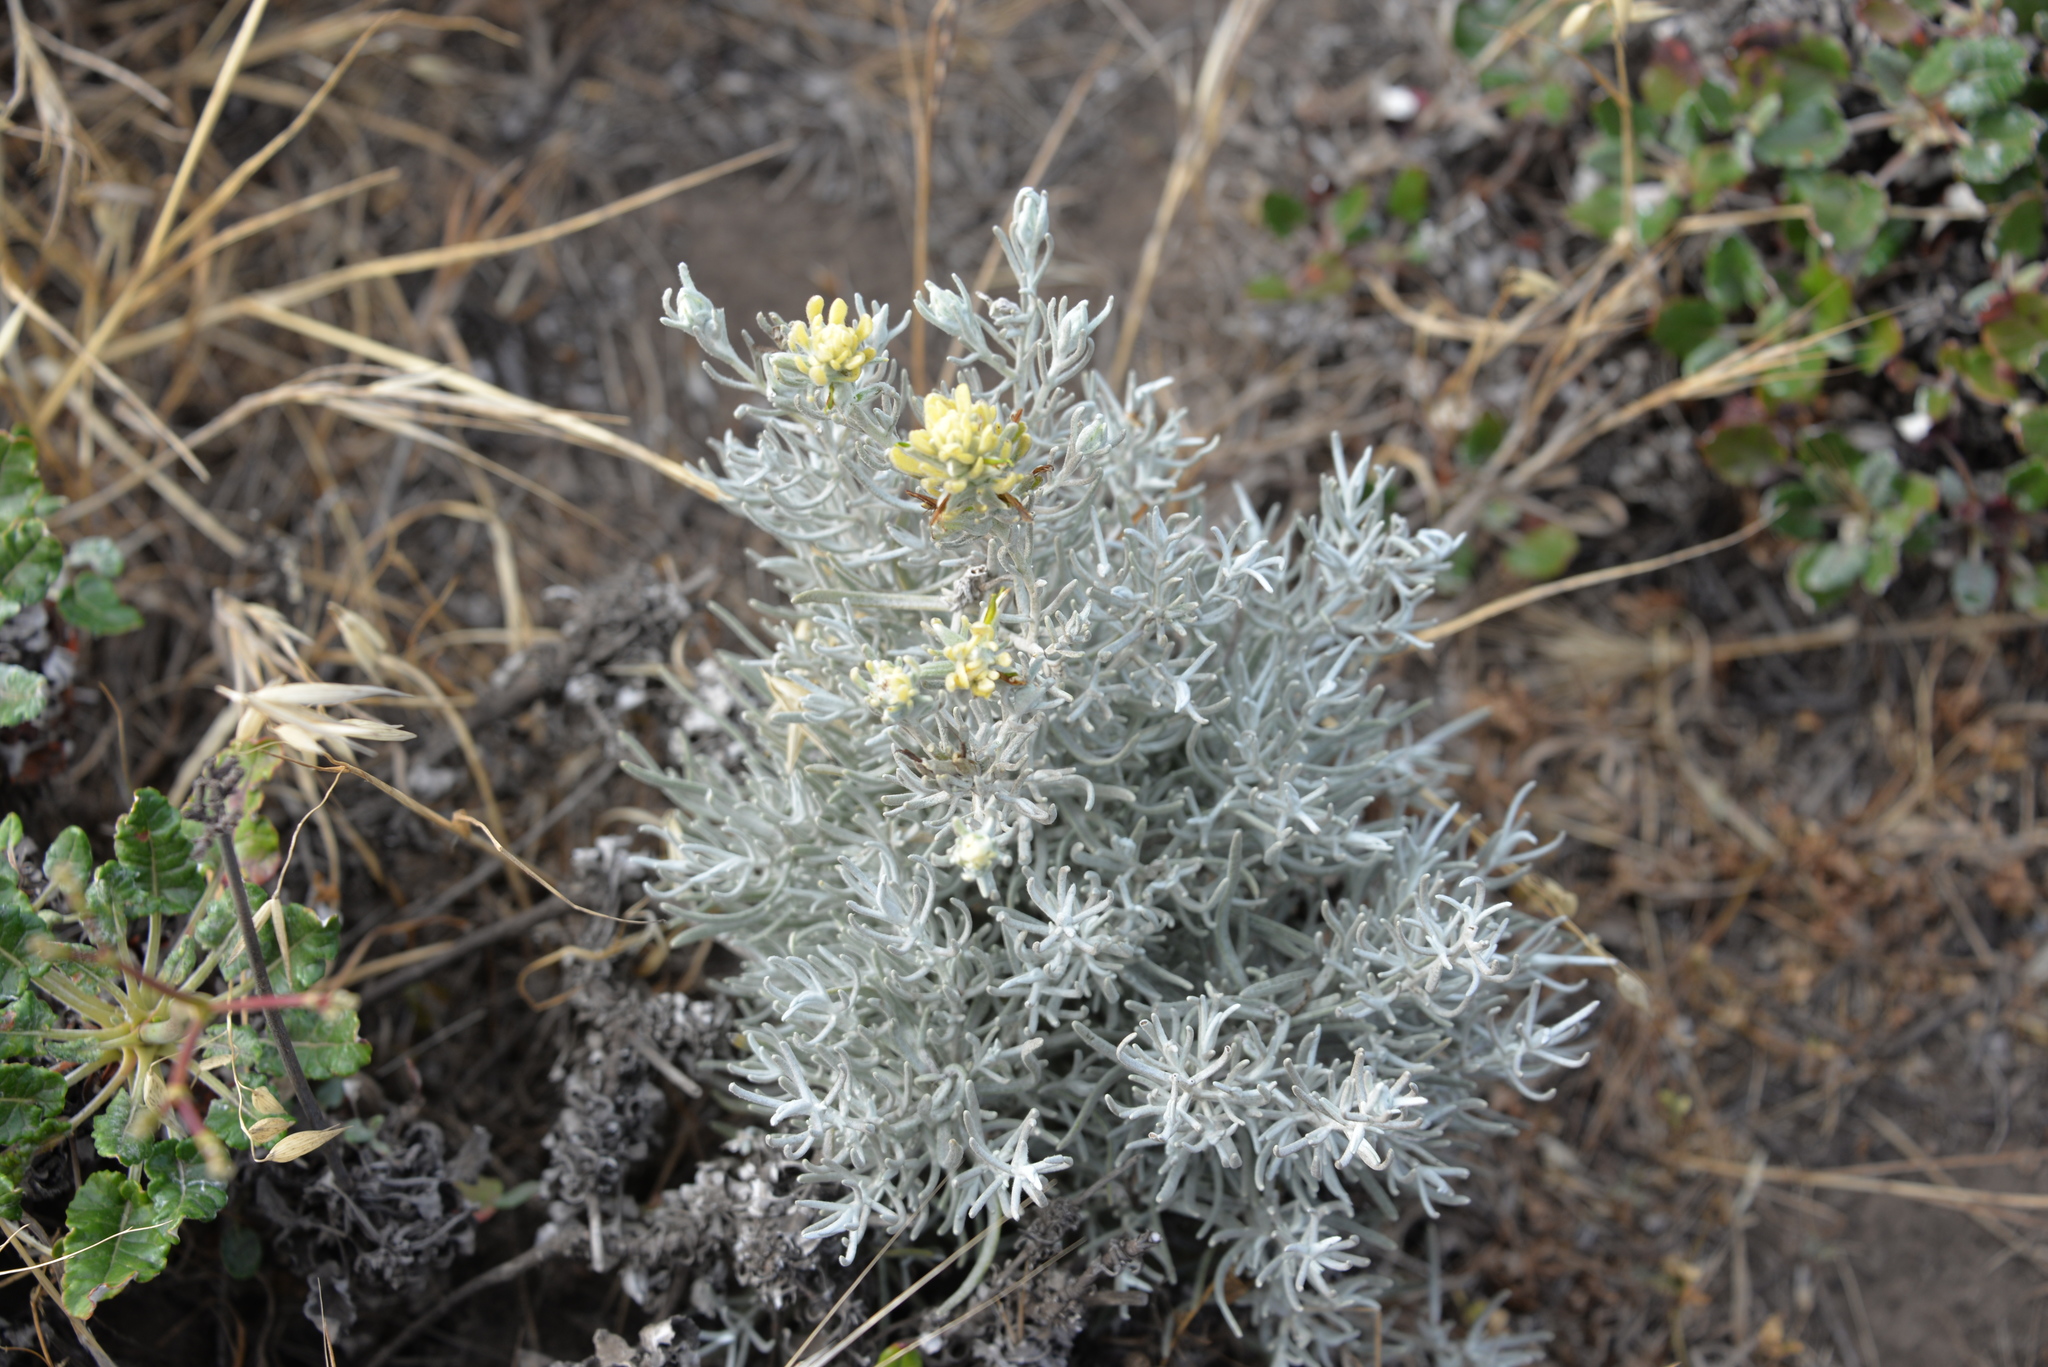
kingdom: Plantae
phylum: Tracheophyta
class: Magnoliopsida
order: Lamiales
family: Orobanchaceae
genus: Castilleja
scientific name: Castilleja hololeuca
